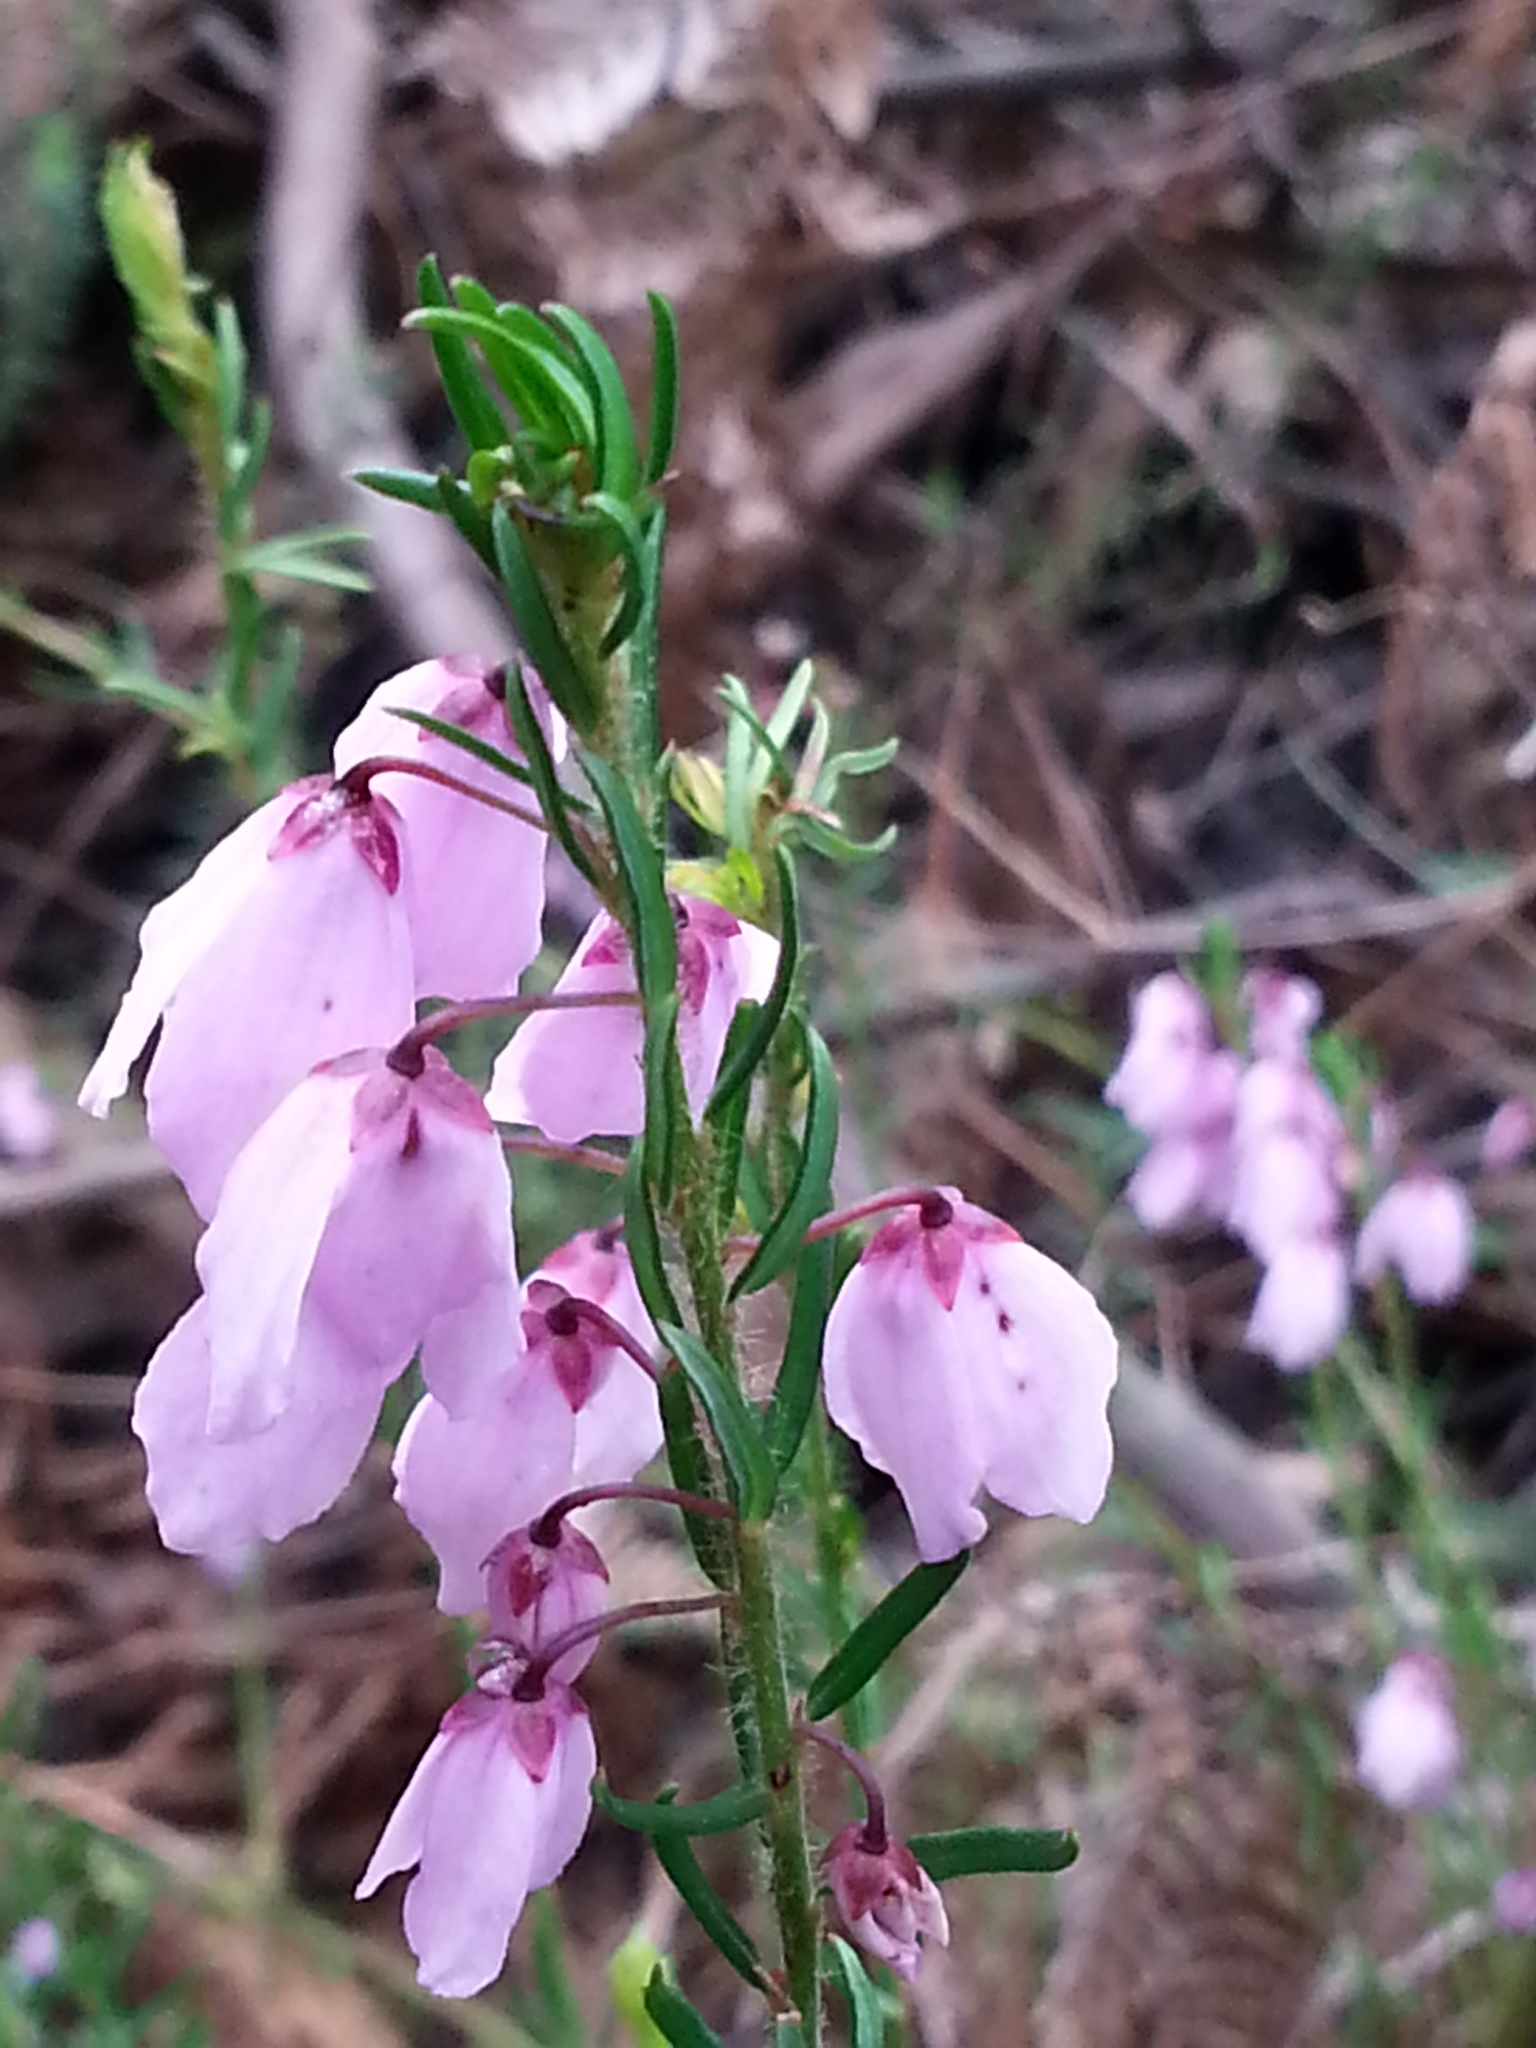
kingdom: Plantae
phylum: Tracheophyta
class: Magnoliopsida
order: Oxalidales
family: Elaeocarpaceae
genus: Tetratheca
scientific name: Tetratheca pilosa
